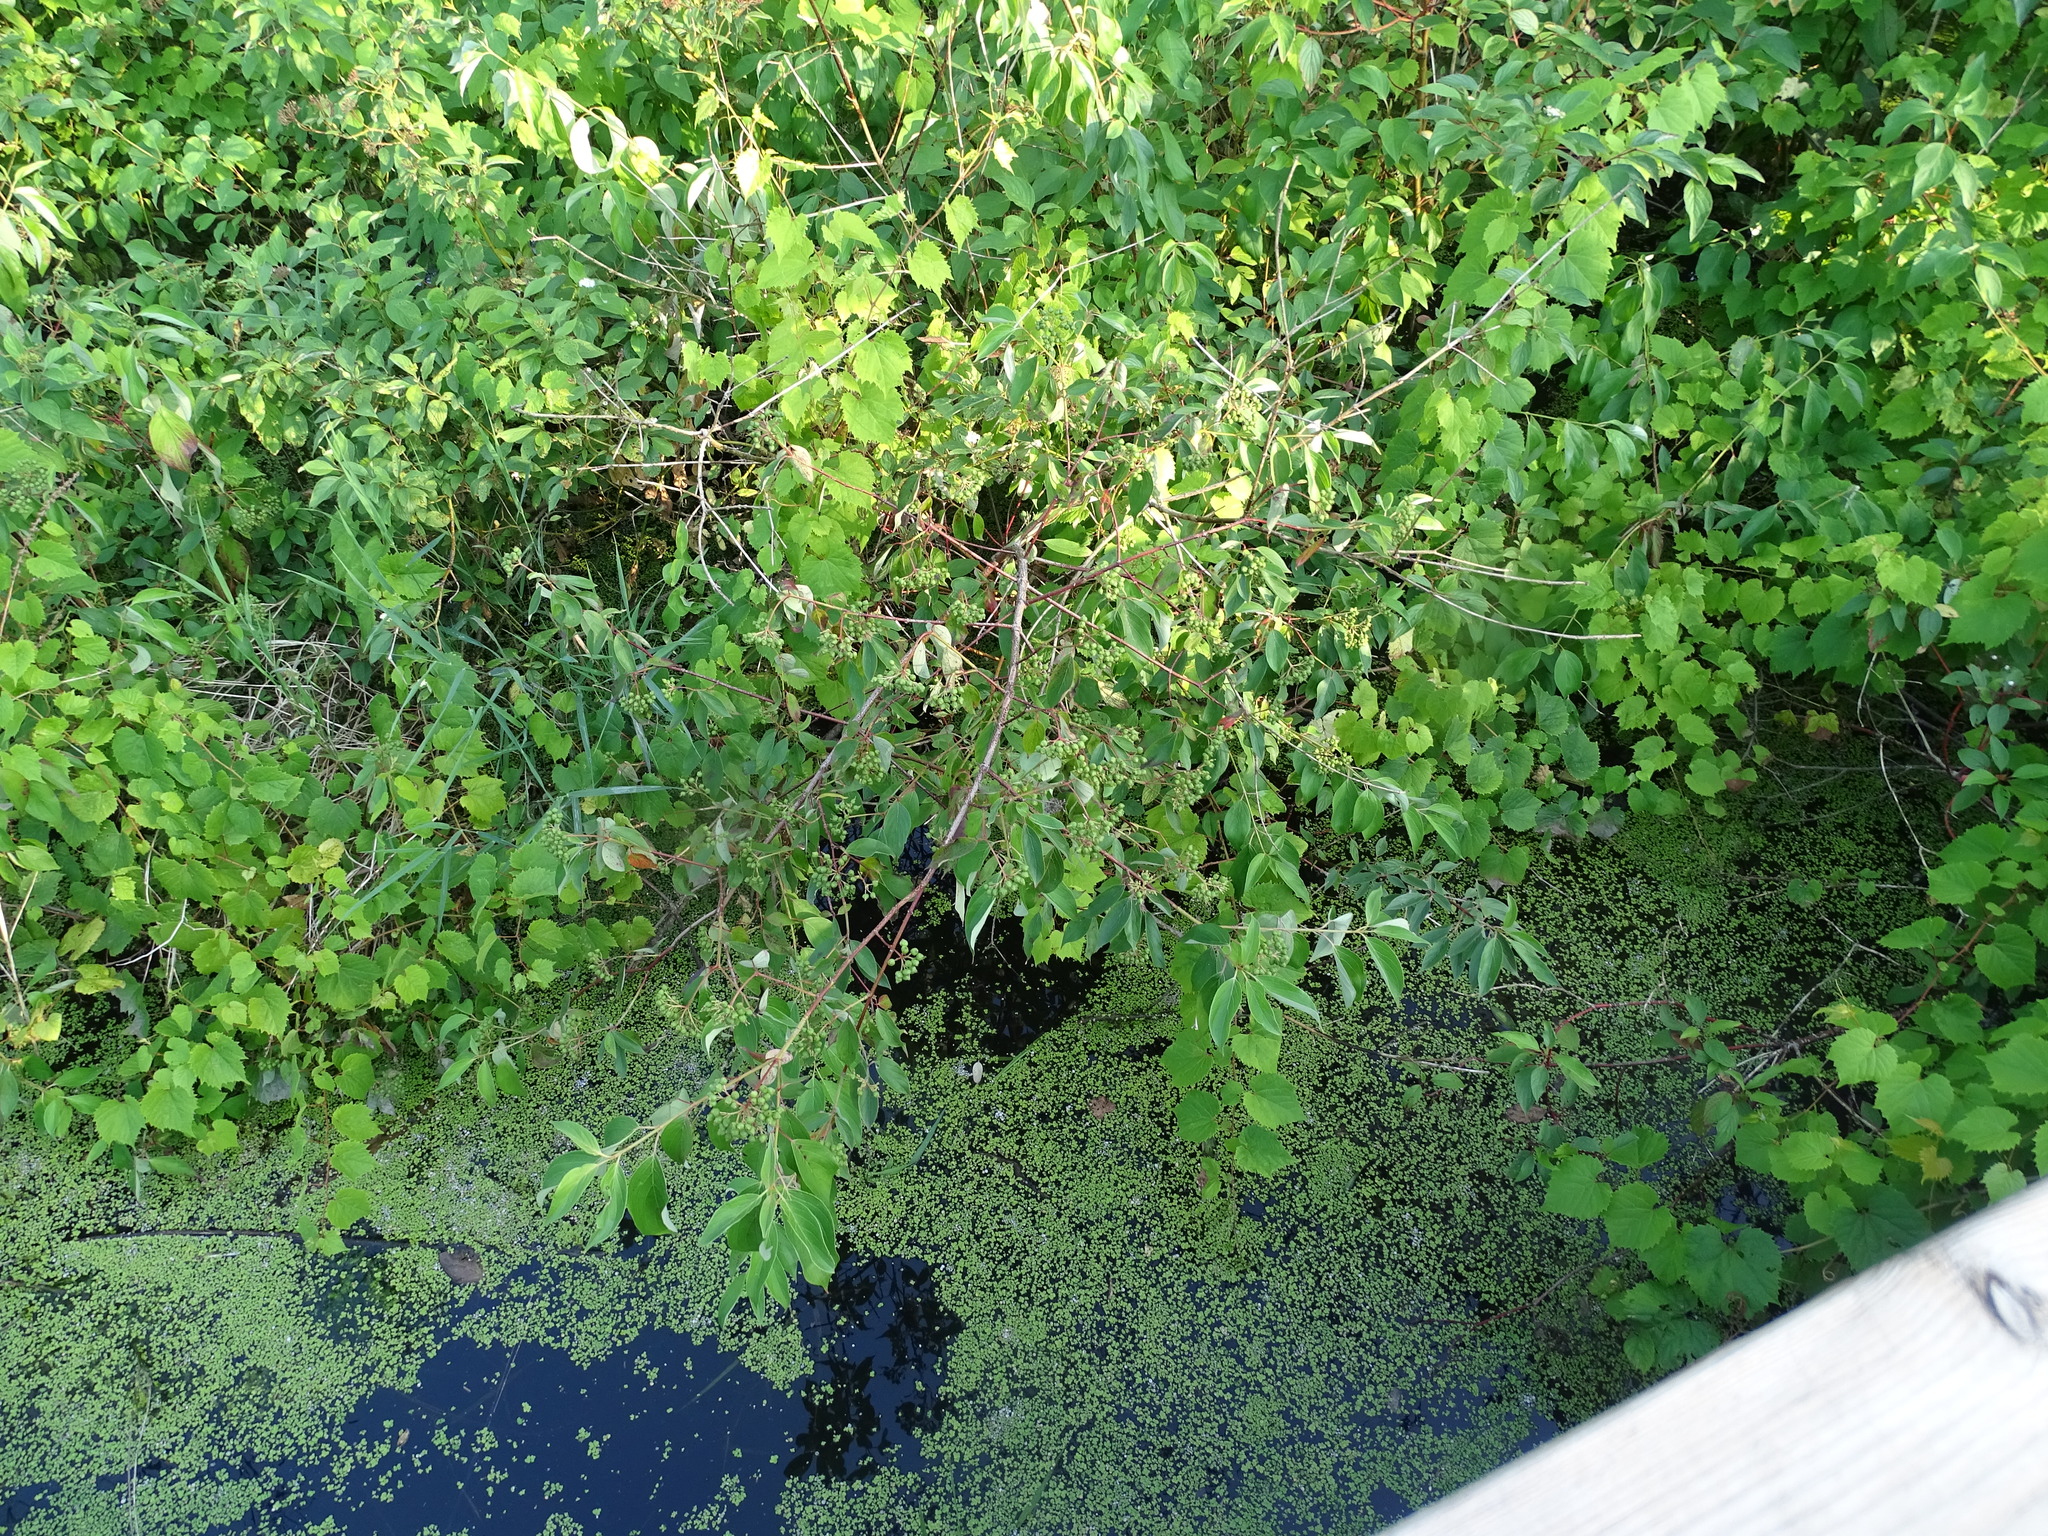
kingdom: Plantae
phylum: Tracheophyta
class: Magnoliopsida
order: Cornales
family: Cornaceae
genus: Cornus
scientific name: Cornus amomum
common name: Silky dogwood
